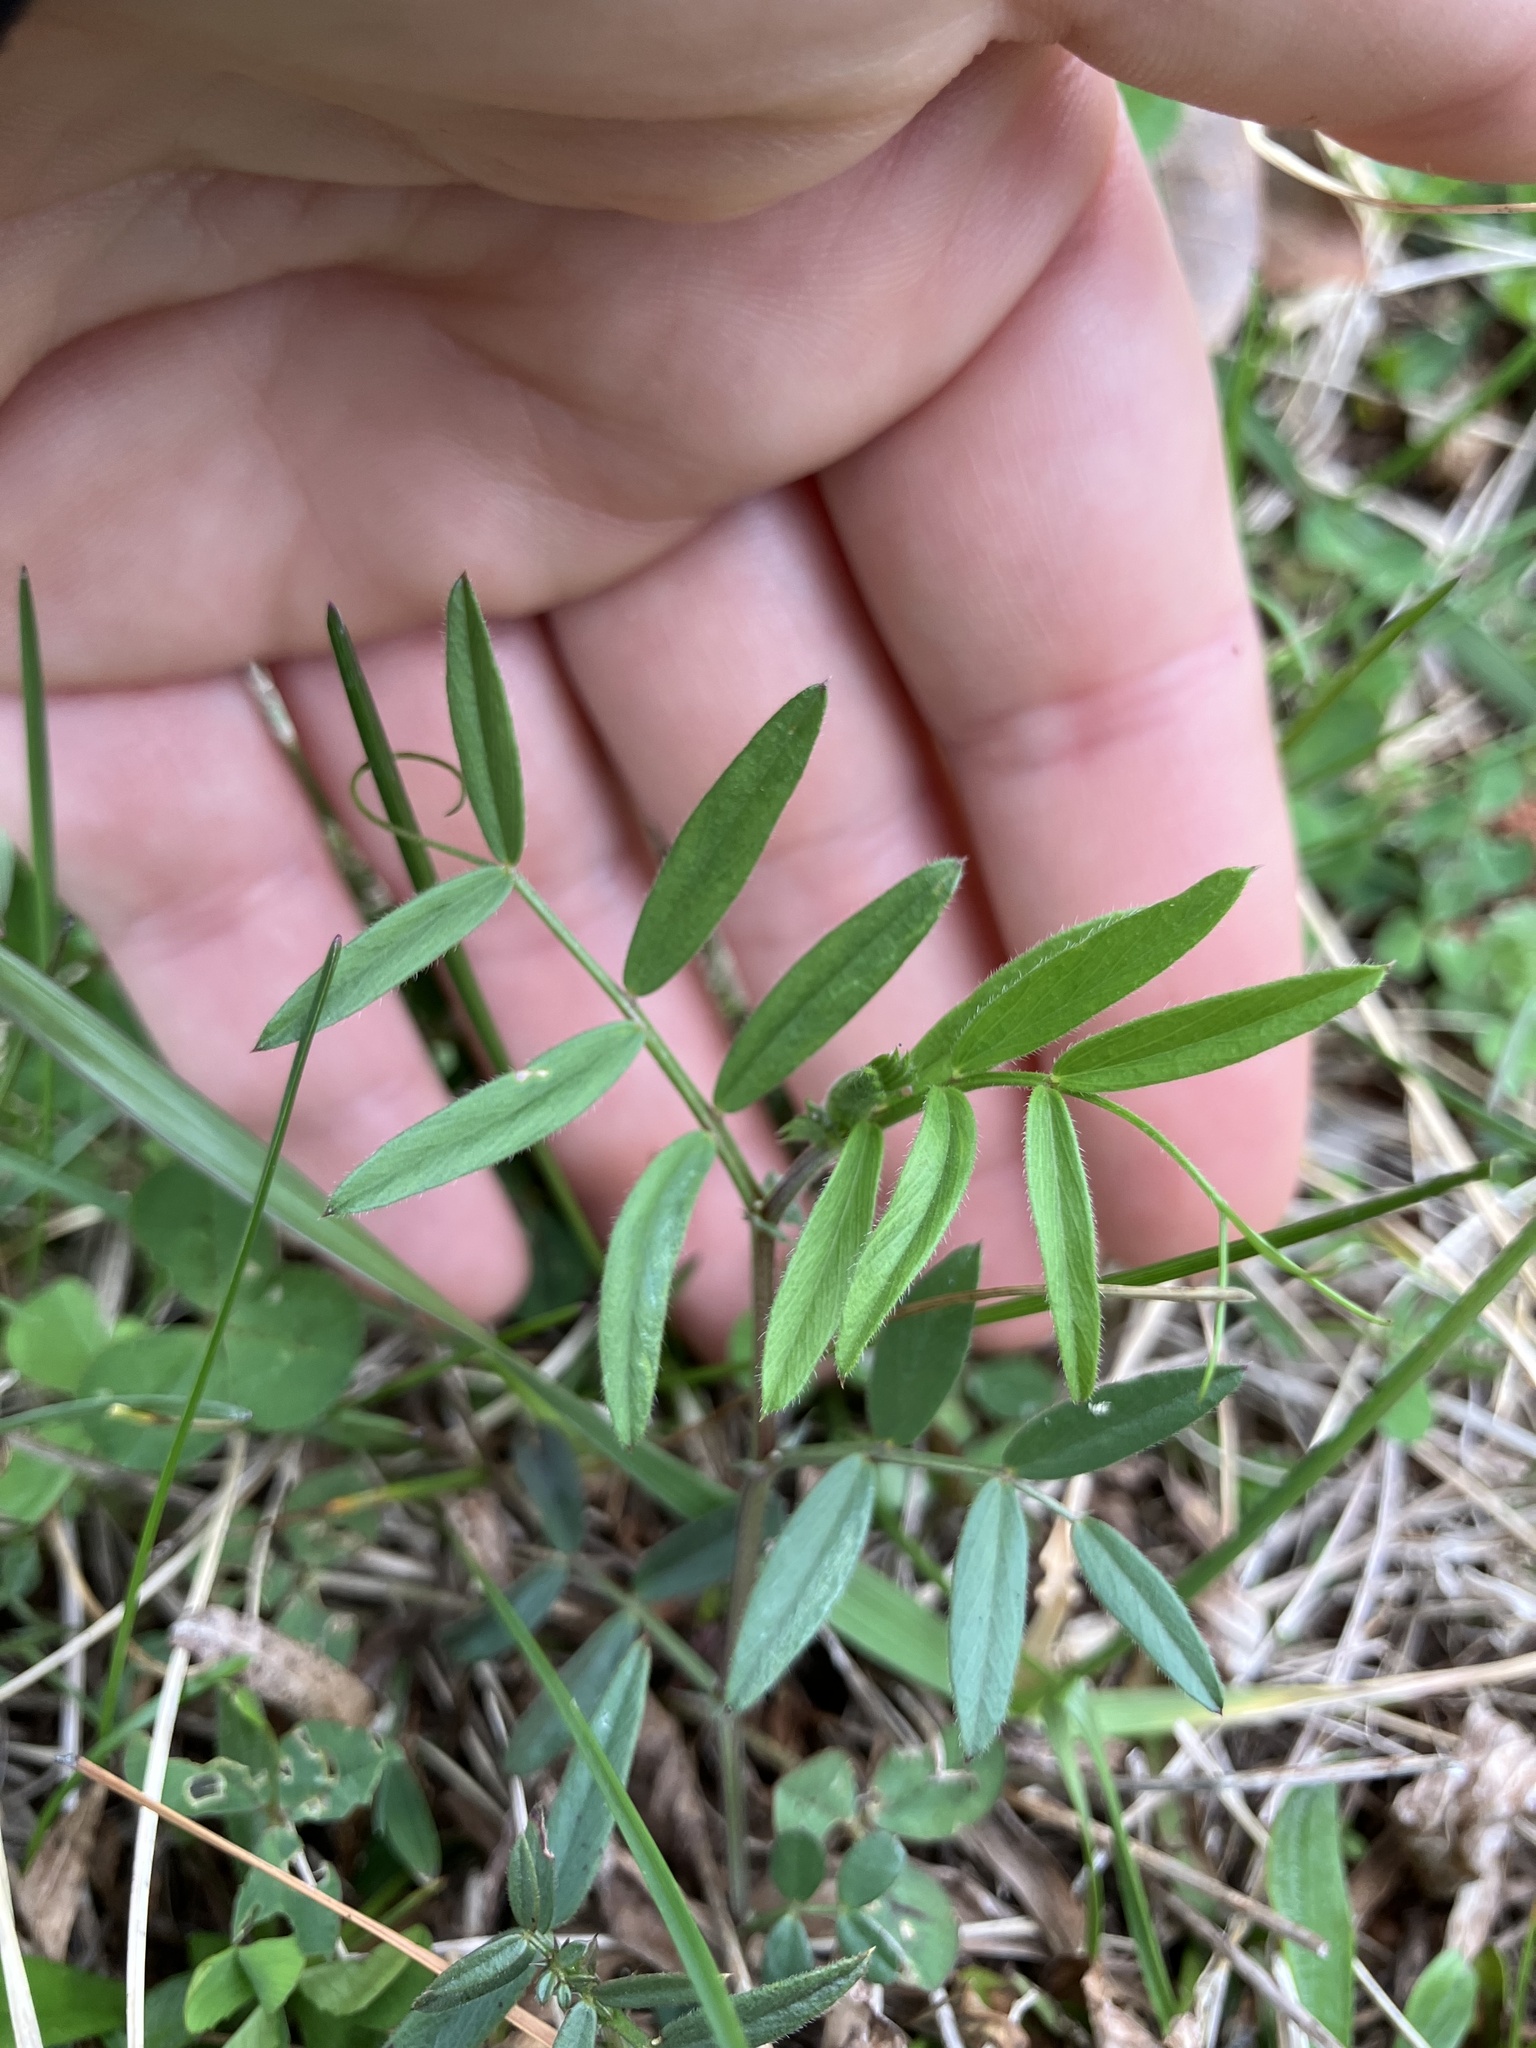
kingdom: Plantae
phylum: Tracheophyta
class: Magnoliopsida
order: Fabales
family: Fabaceae
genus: Vicia
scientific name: Vicia sativa
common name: Garden vetch
